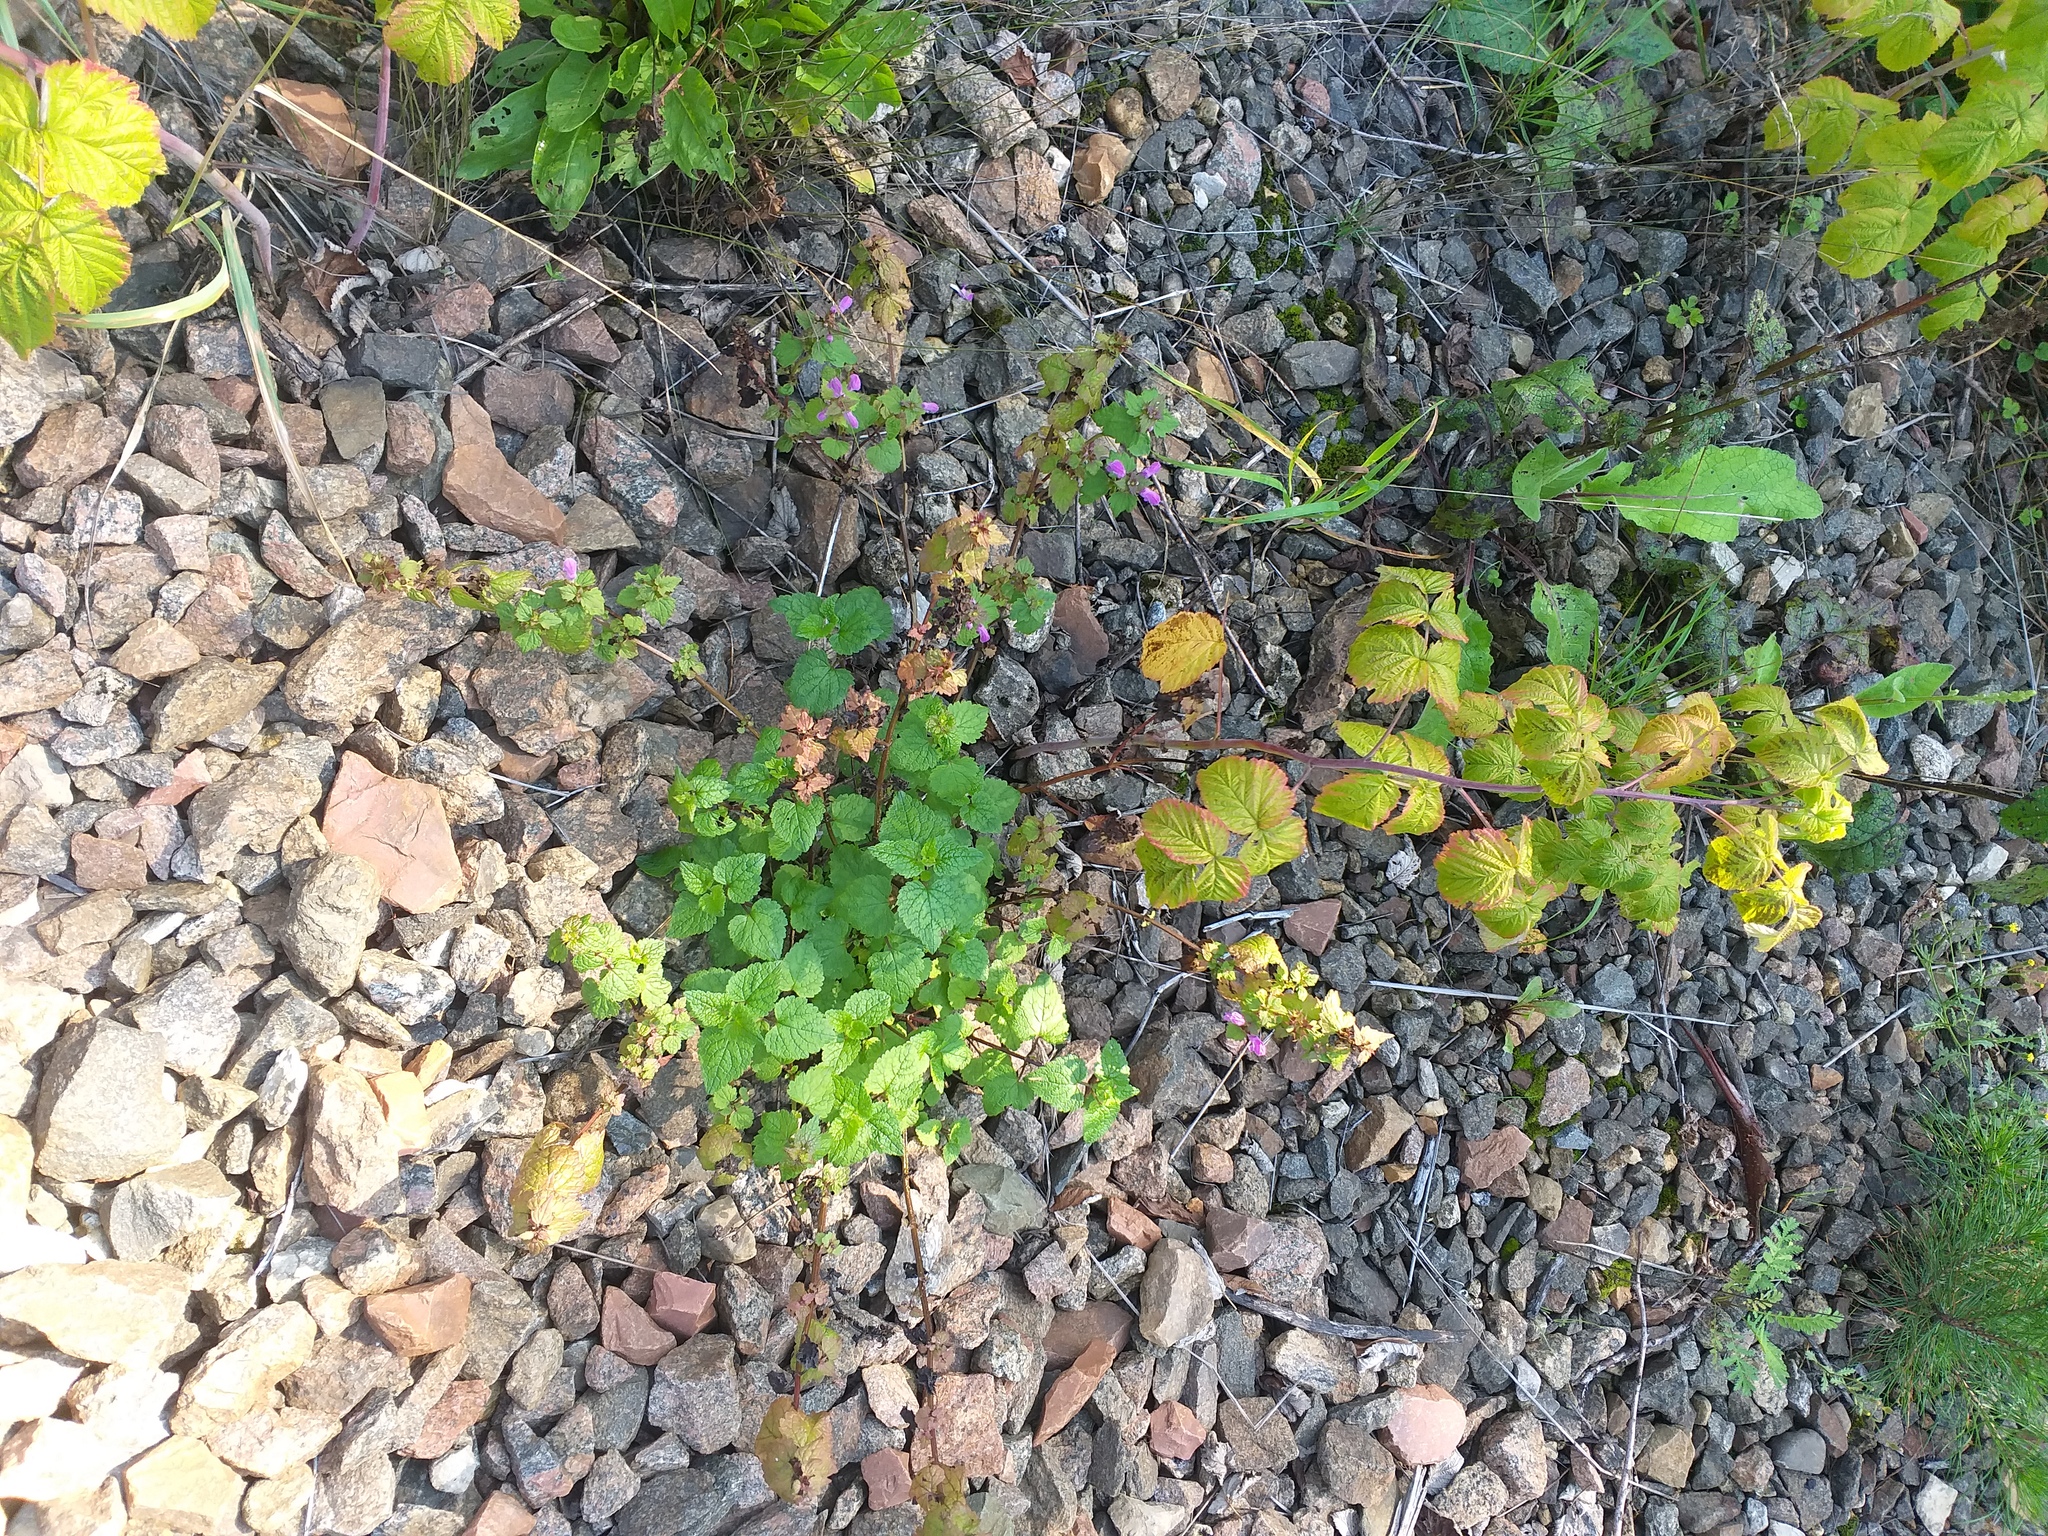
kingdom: Plantae
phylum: Tracheophyta
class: Magnoliopsida
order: Lamiales
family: Lamiaceae
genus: Lamium
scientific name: Lamium maculatum
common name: Spotted dead-nettle
